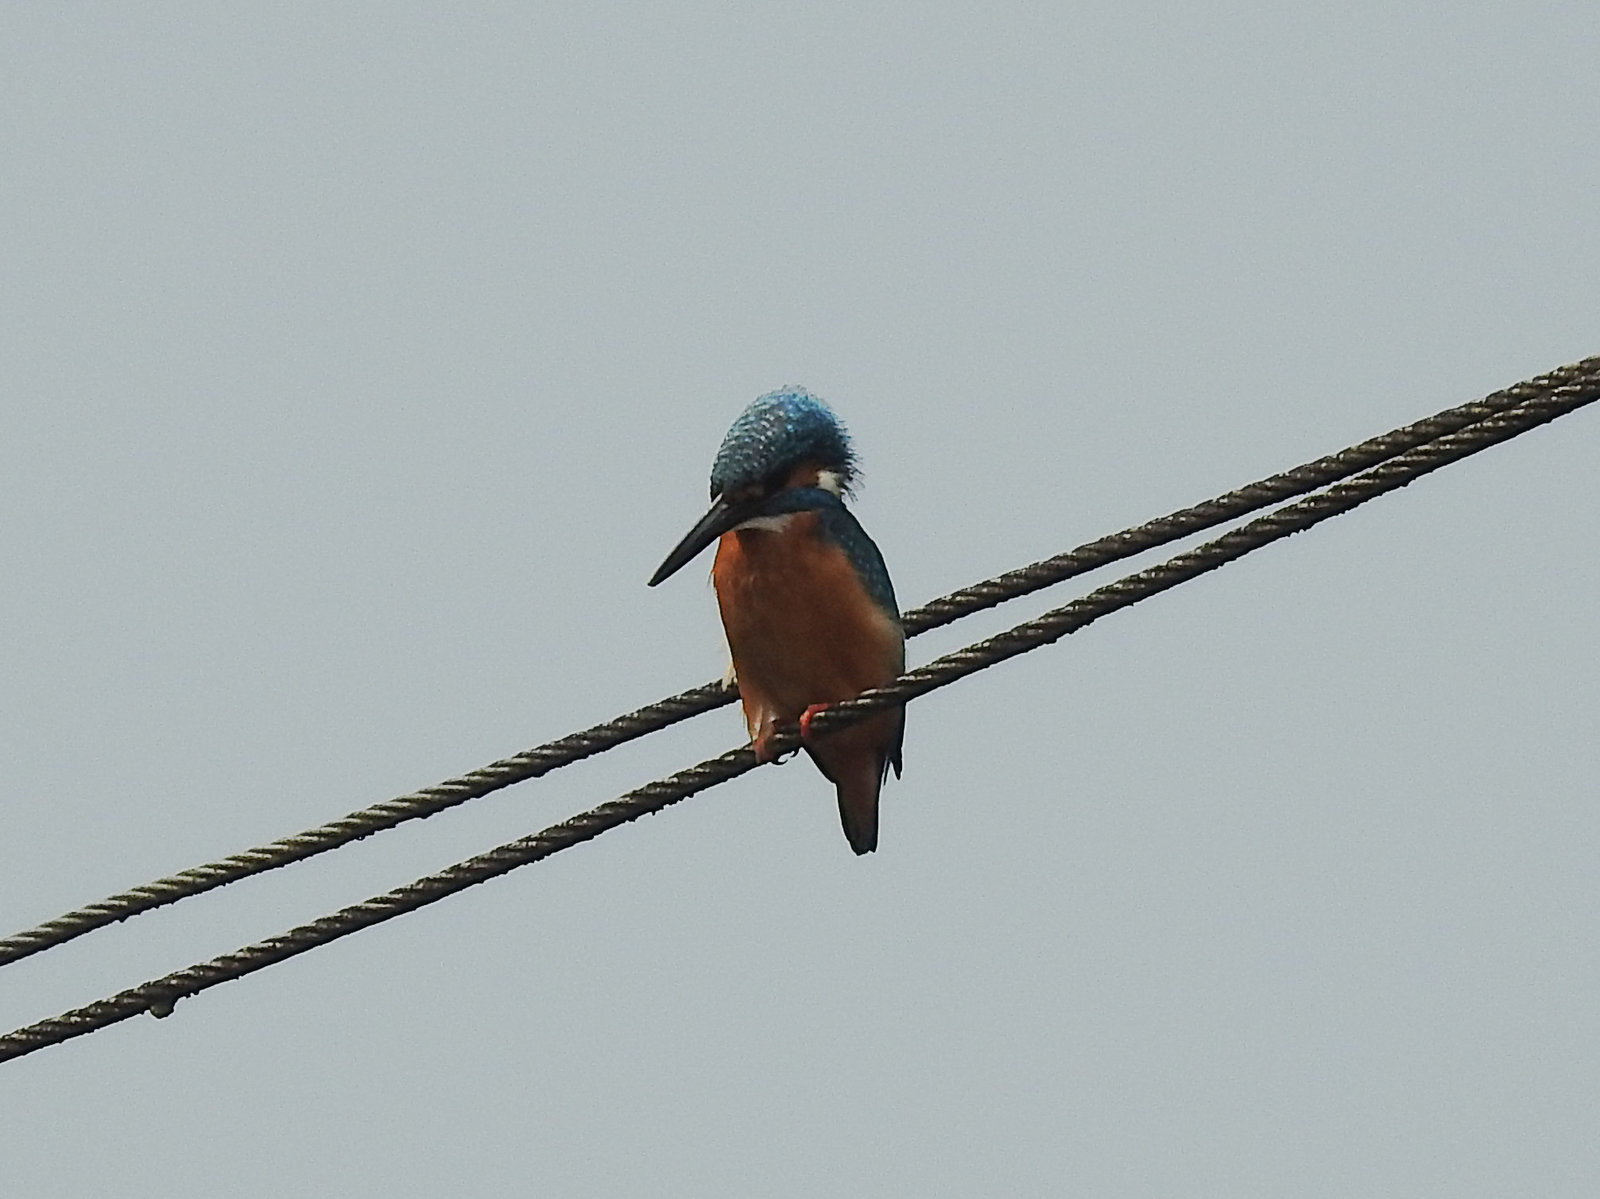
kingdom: Animalia
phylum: Chordata
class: Aves
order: Coraciiformes
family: Alcedinidae
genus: Alcedo
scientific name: Alcedo atthis
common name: Common kingfisher
